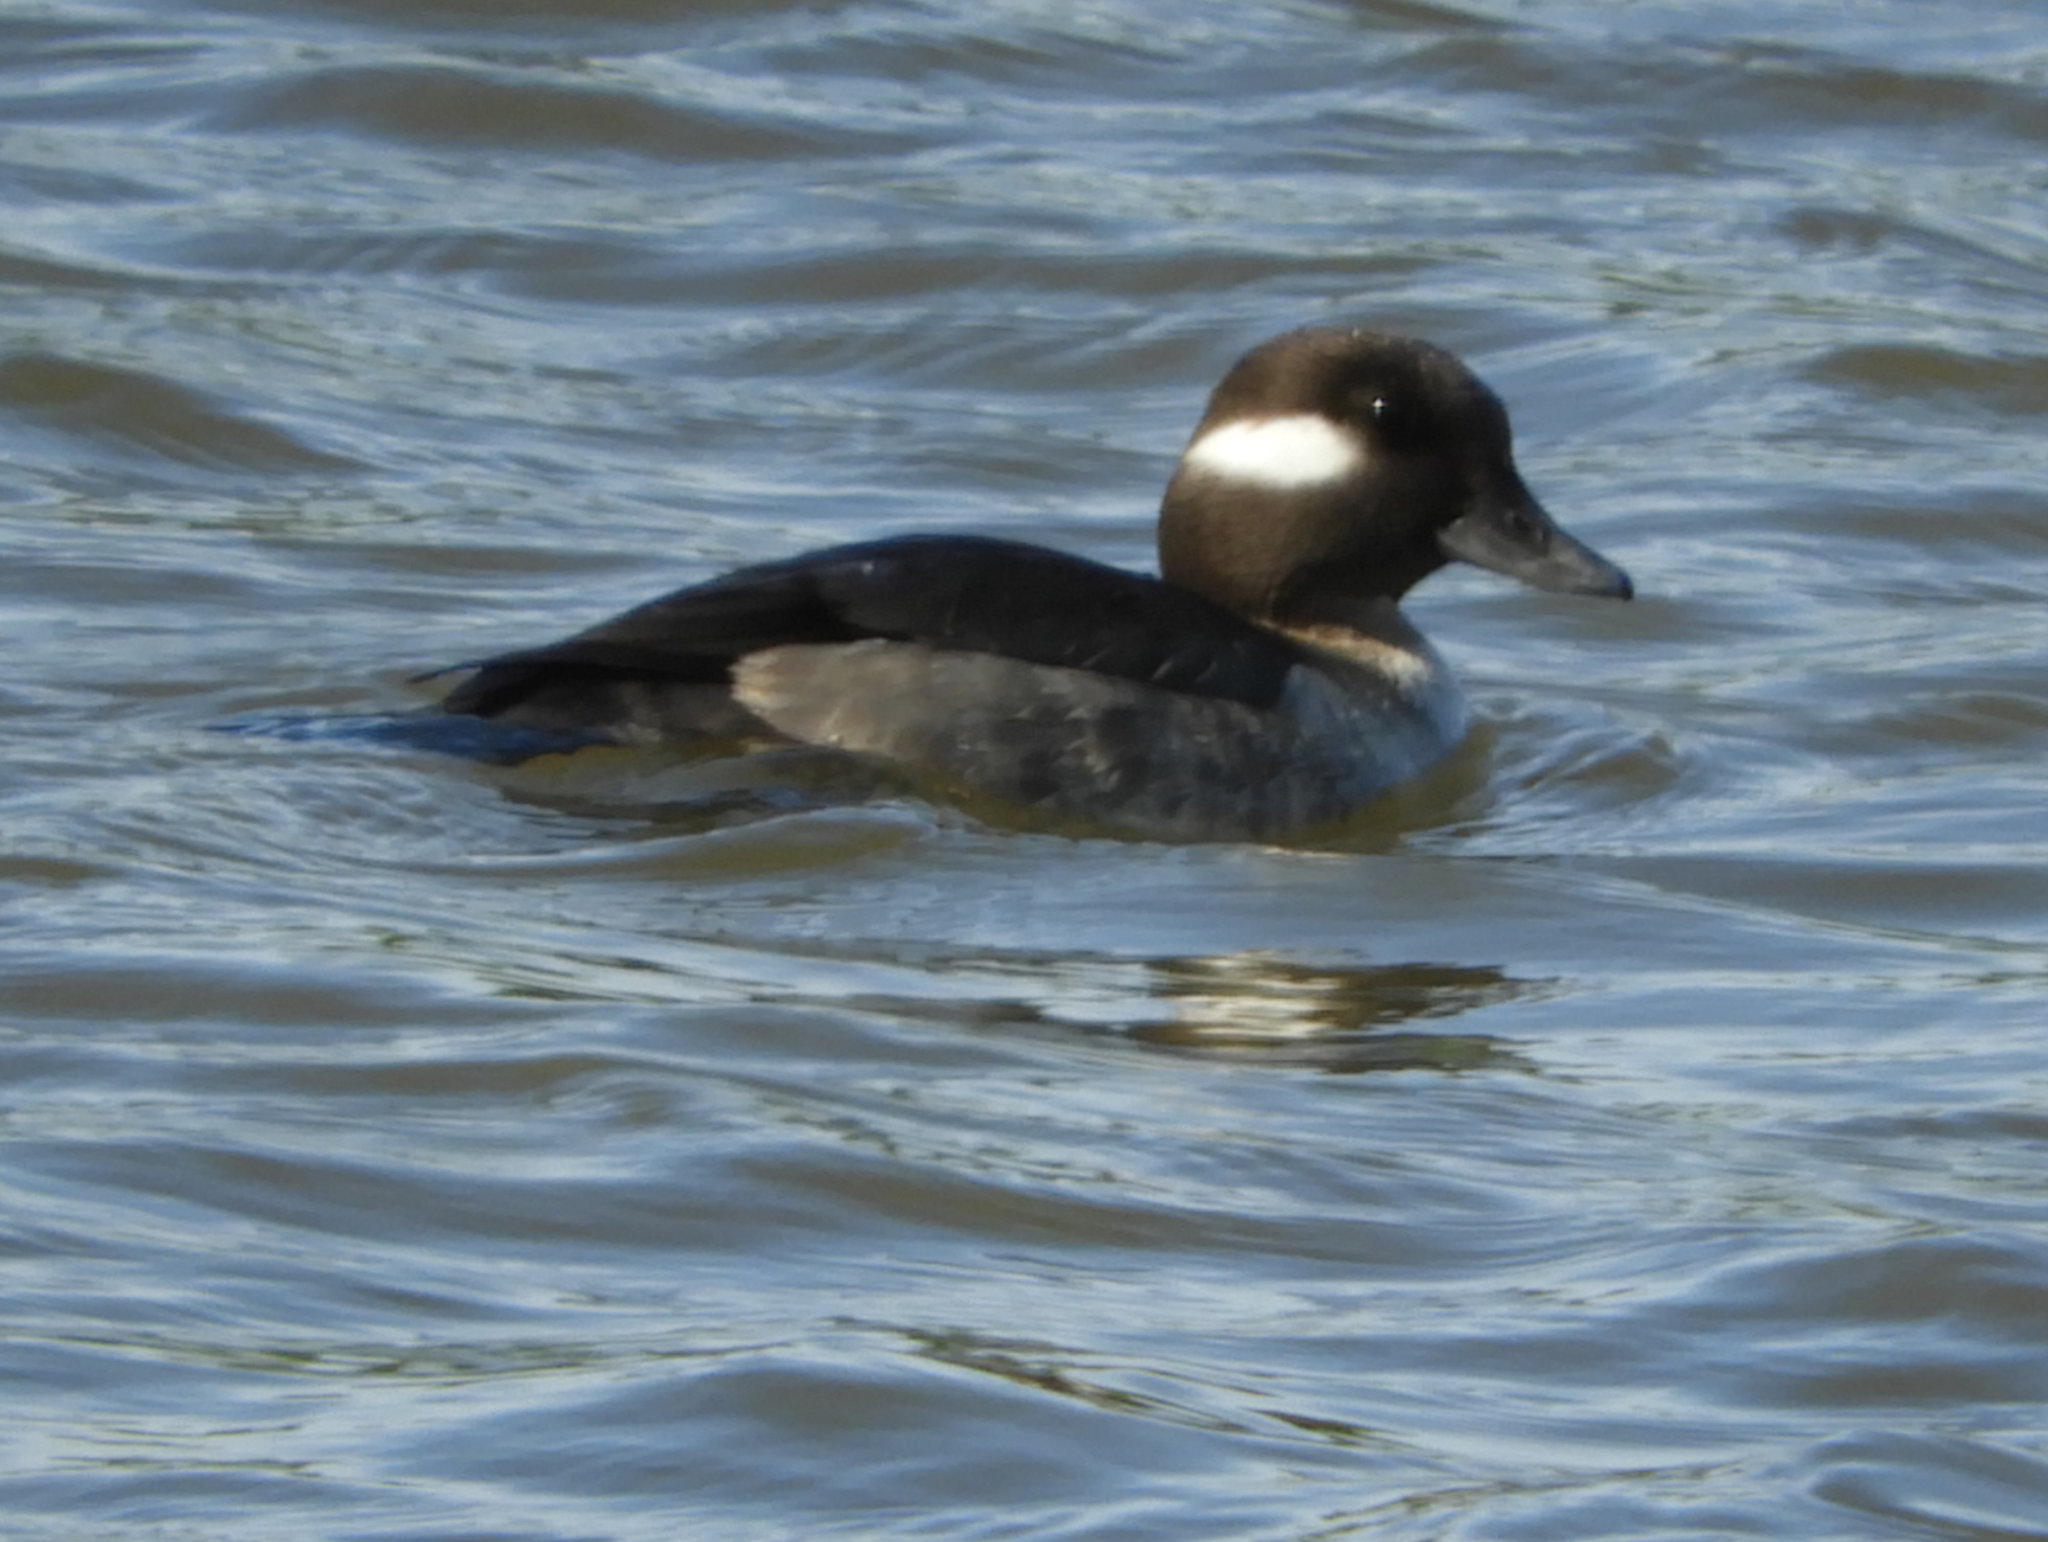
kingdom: Animalia
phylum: Chordata
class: Aves
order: Anseriformes
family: Anatidae
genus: Bucephala
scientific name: Bucephala albeola
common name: Bufflehead
